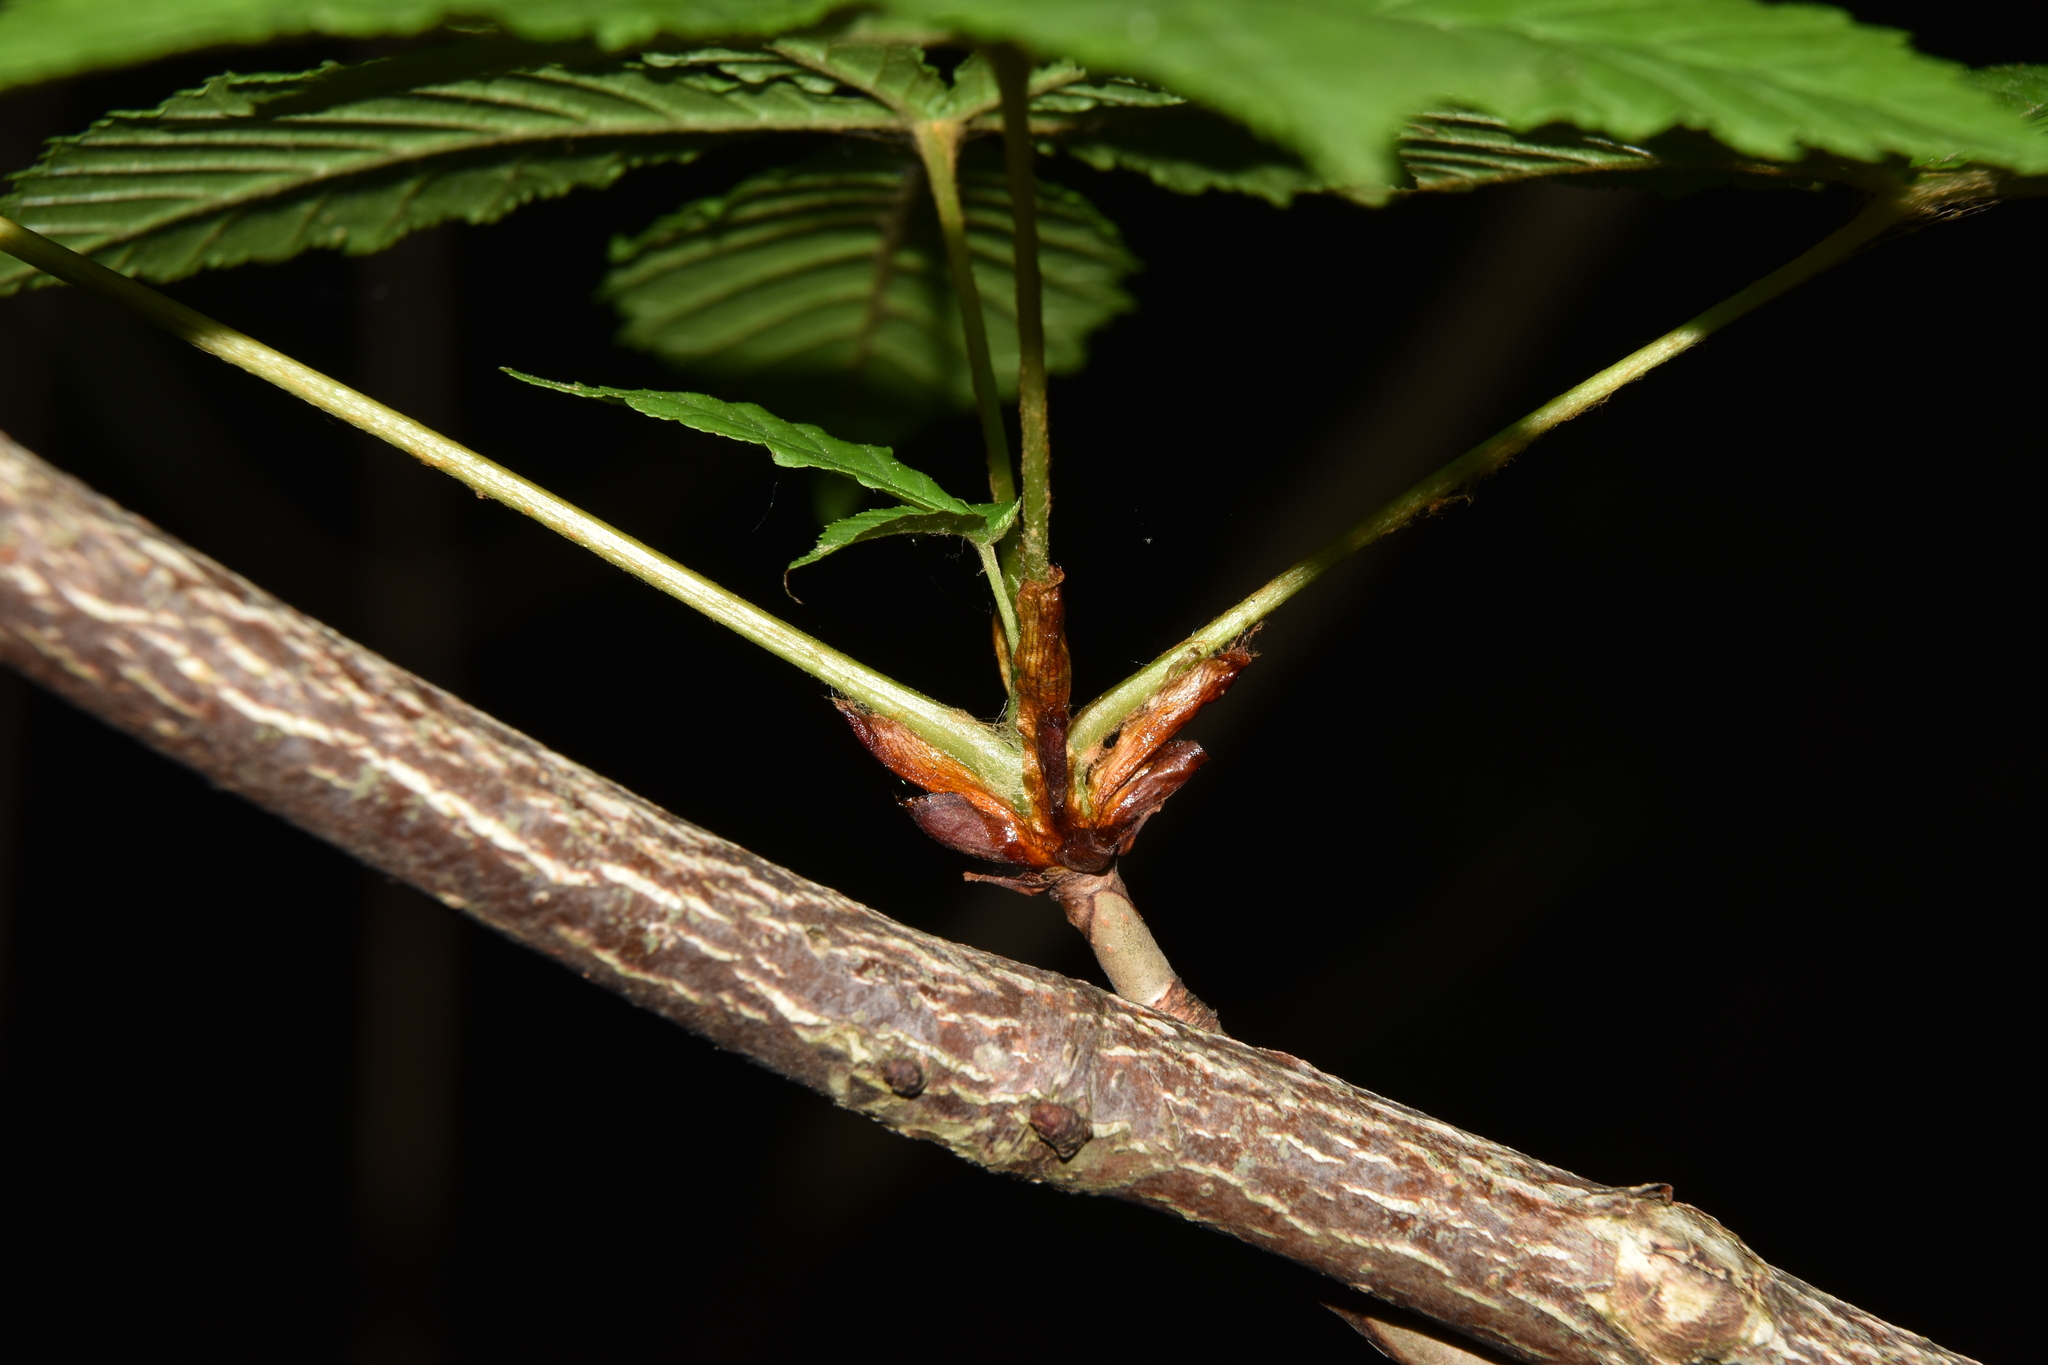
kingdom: Plantae
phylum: Tracheophyta
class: Magnoliopsida
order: Sapindales
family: Sapindaceae
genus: Aesculus
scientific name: Aesculus hippocastanum
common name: Horse-chestnut
